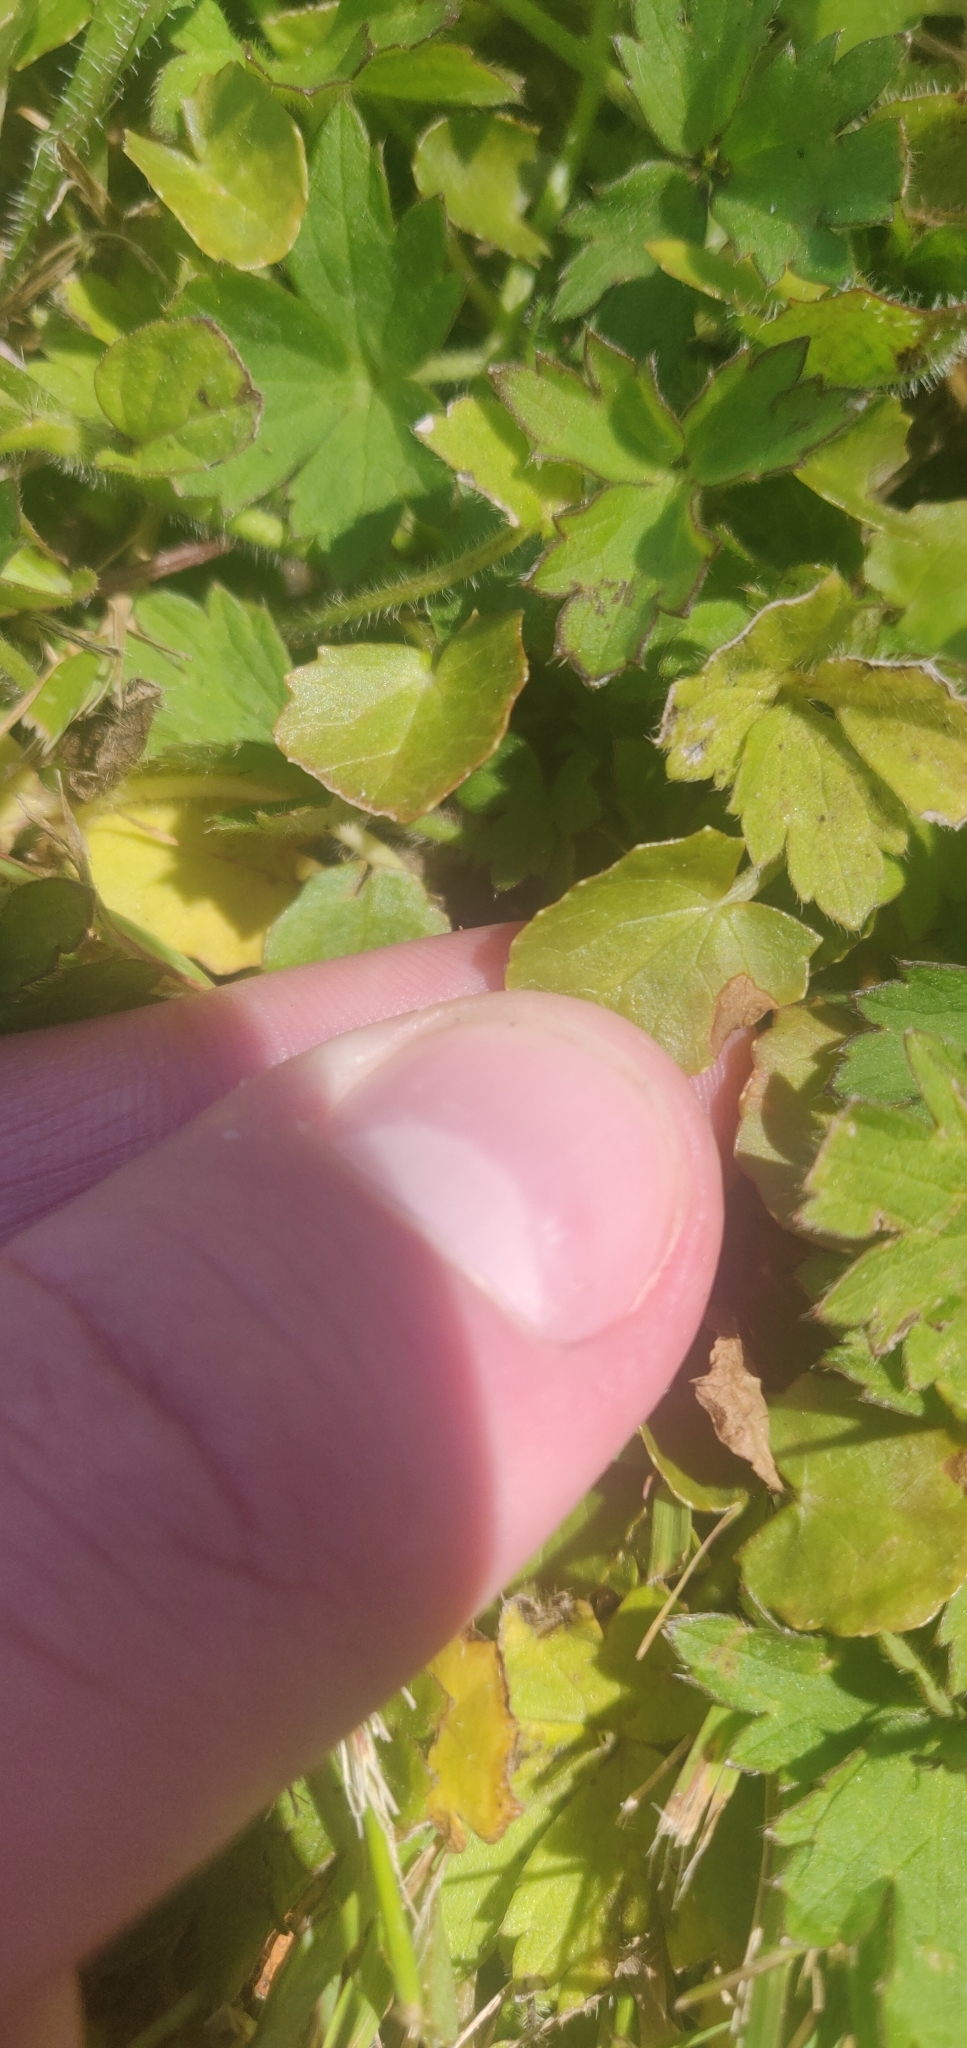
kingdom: Plantae
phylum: Tracheophyta
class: Magnoliopsida
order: Apiales
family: Apiaceae
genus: Centella
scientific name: Centella uniflora
